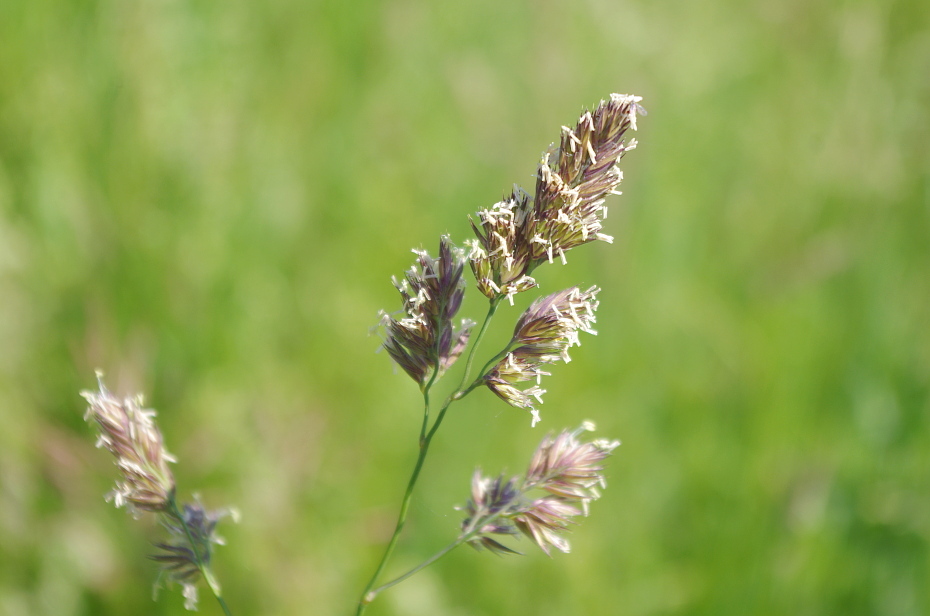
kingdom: Plantae
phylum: Tracheophyta
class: Liliopsida
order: Poales
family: Poaceae
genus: Dactylis
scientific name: Dactylis glomerata
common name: Orchardgrass
